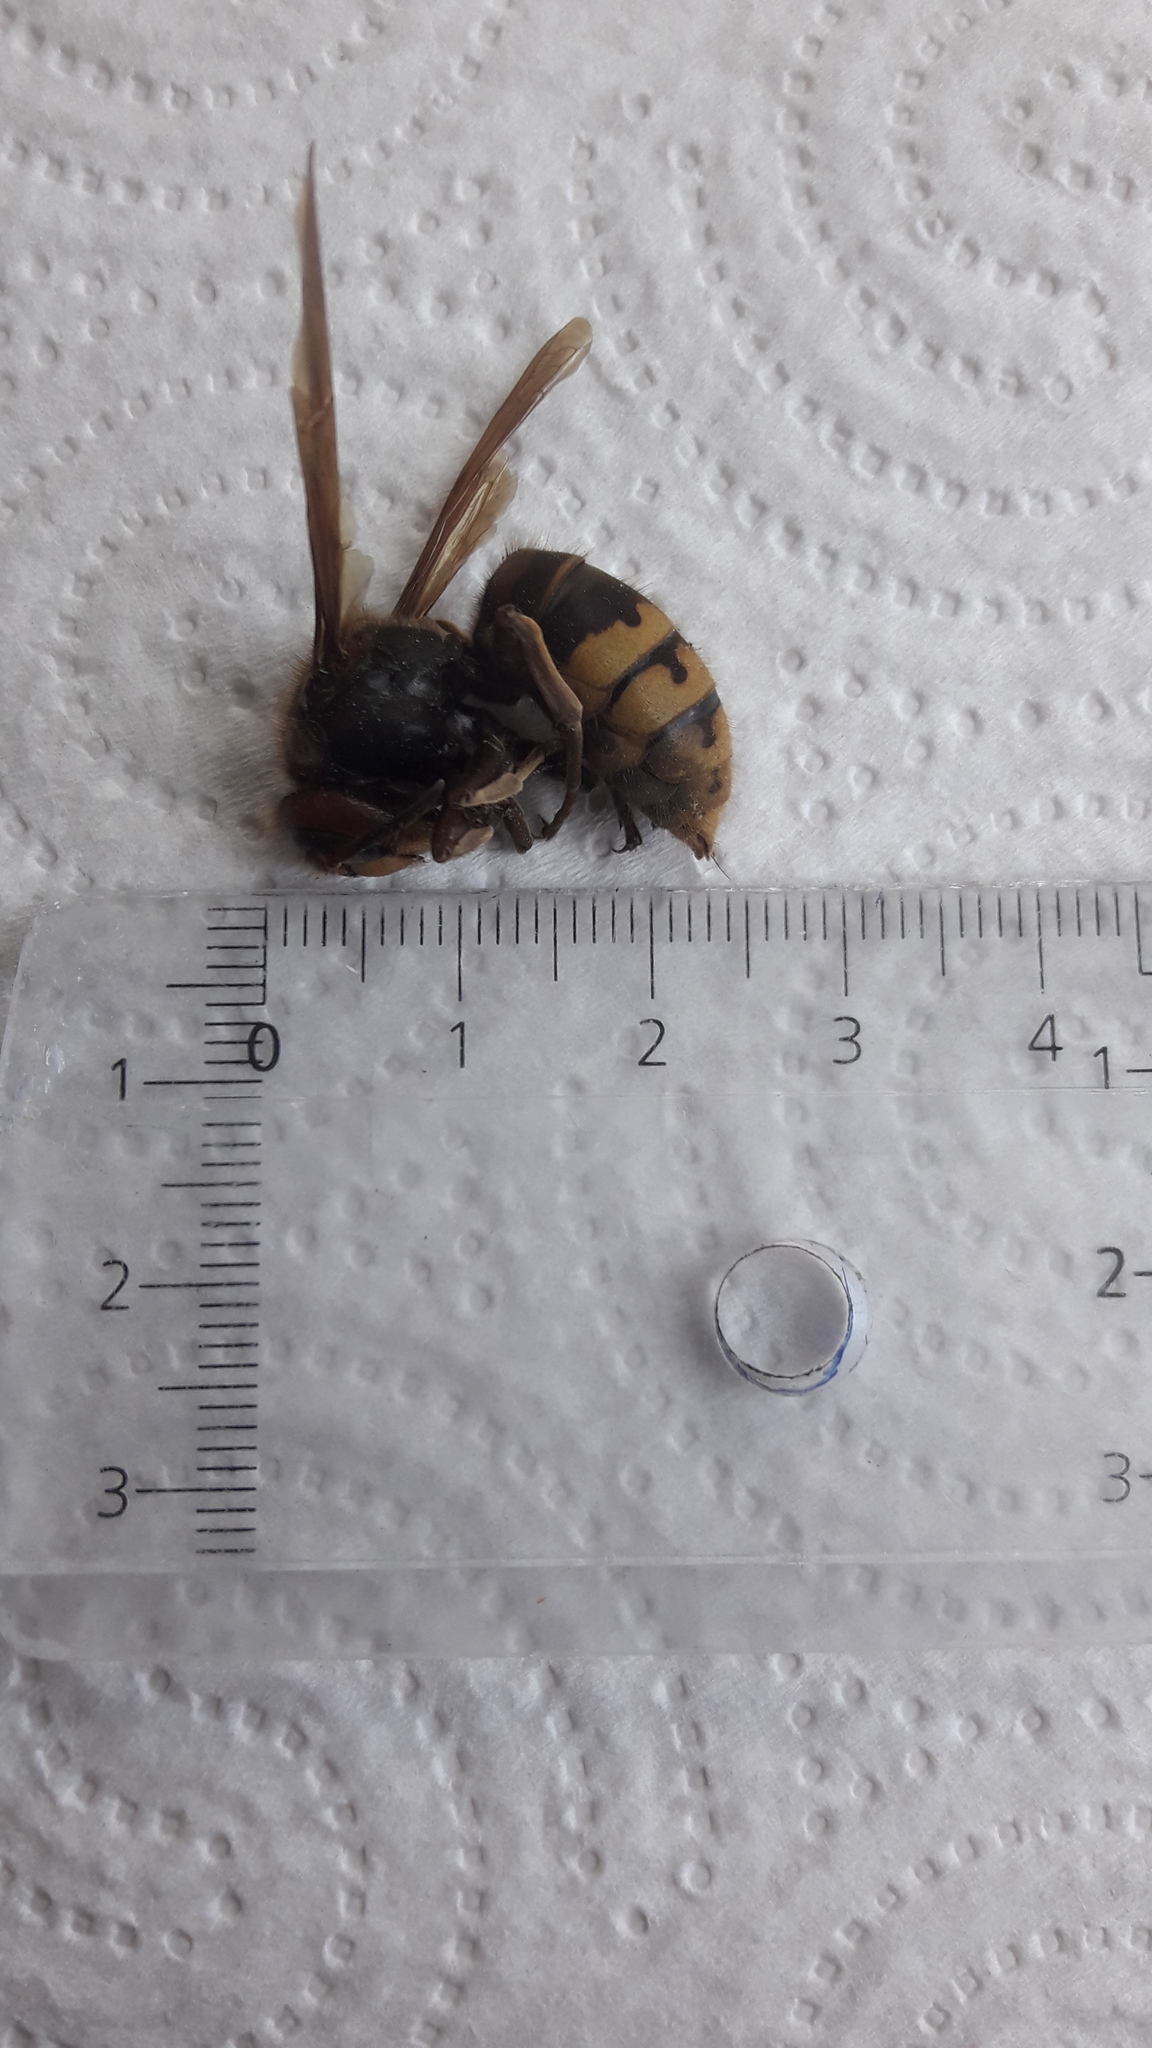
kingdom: Animalia
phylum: Arthropoda
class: Insecta
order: Hymenoptera
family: Vespidae
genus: Vespa
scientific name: Vespa crabro
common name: Hornet
